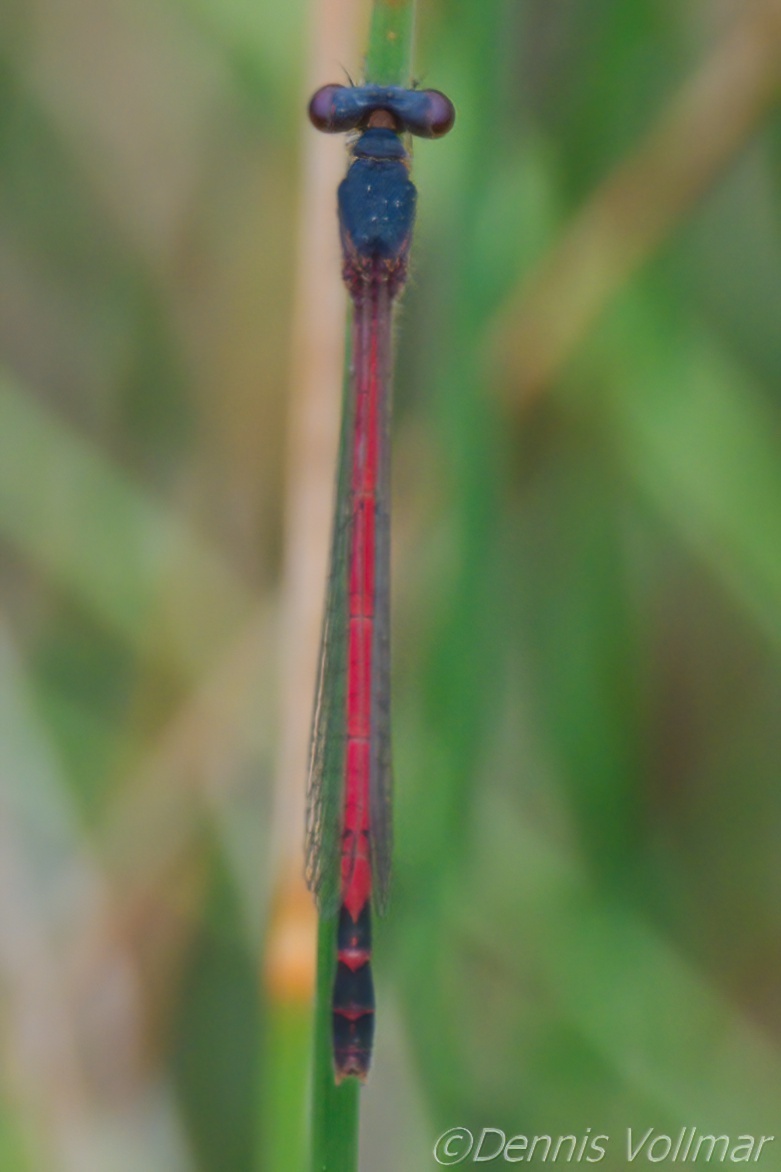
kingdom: Animalia
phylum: Arthropoda
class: Insecta
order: Odonata
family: Coenagrionidae
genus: Amphiagrion
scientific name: Amphiagrion saucium
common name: Eastern red damsel
